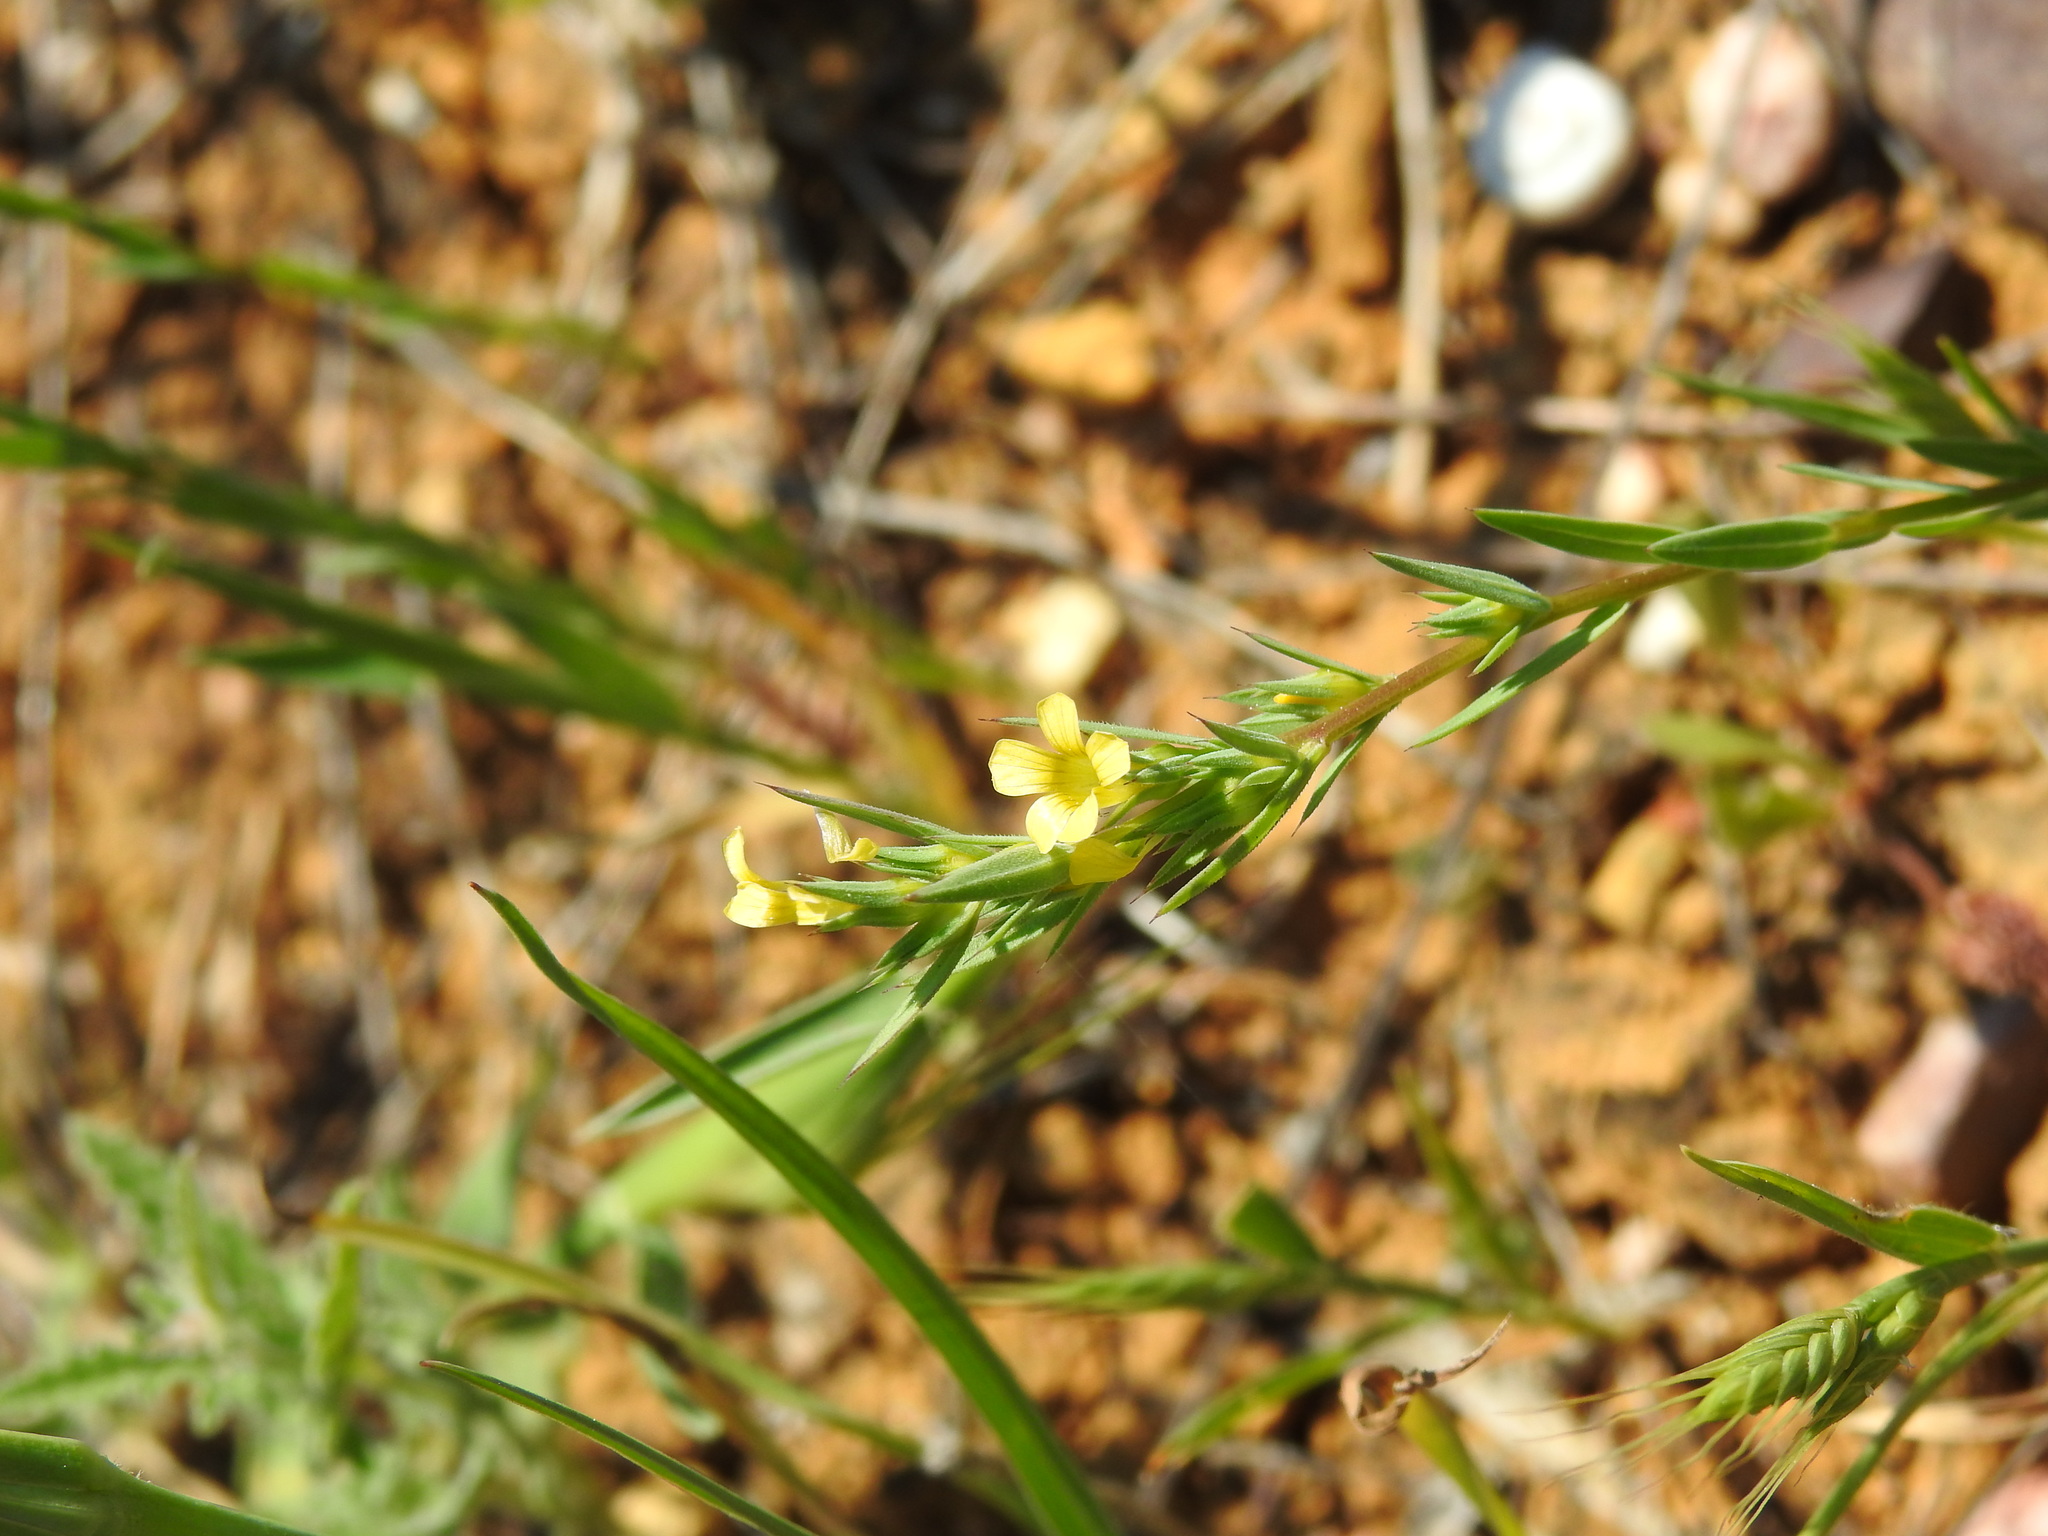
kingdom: Plantae
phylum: Tracheophyta
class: Magnoliopsida
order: Malpighiales
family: Linaceae
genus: Linum
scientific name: Linum strictum
